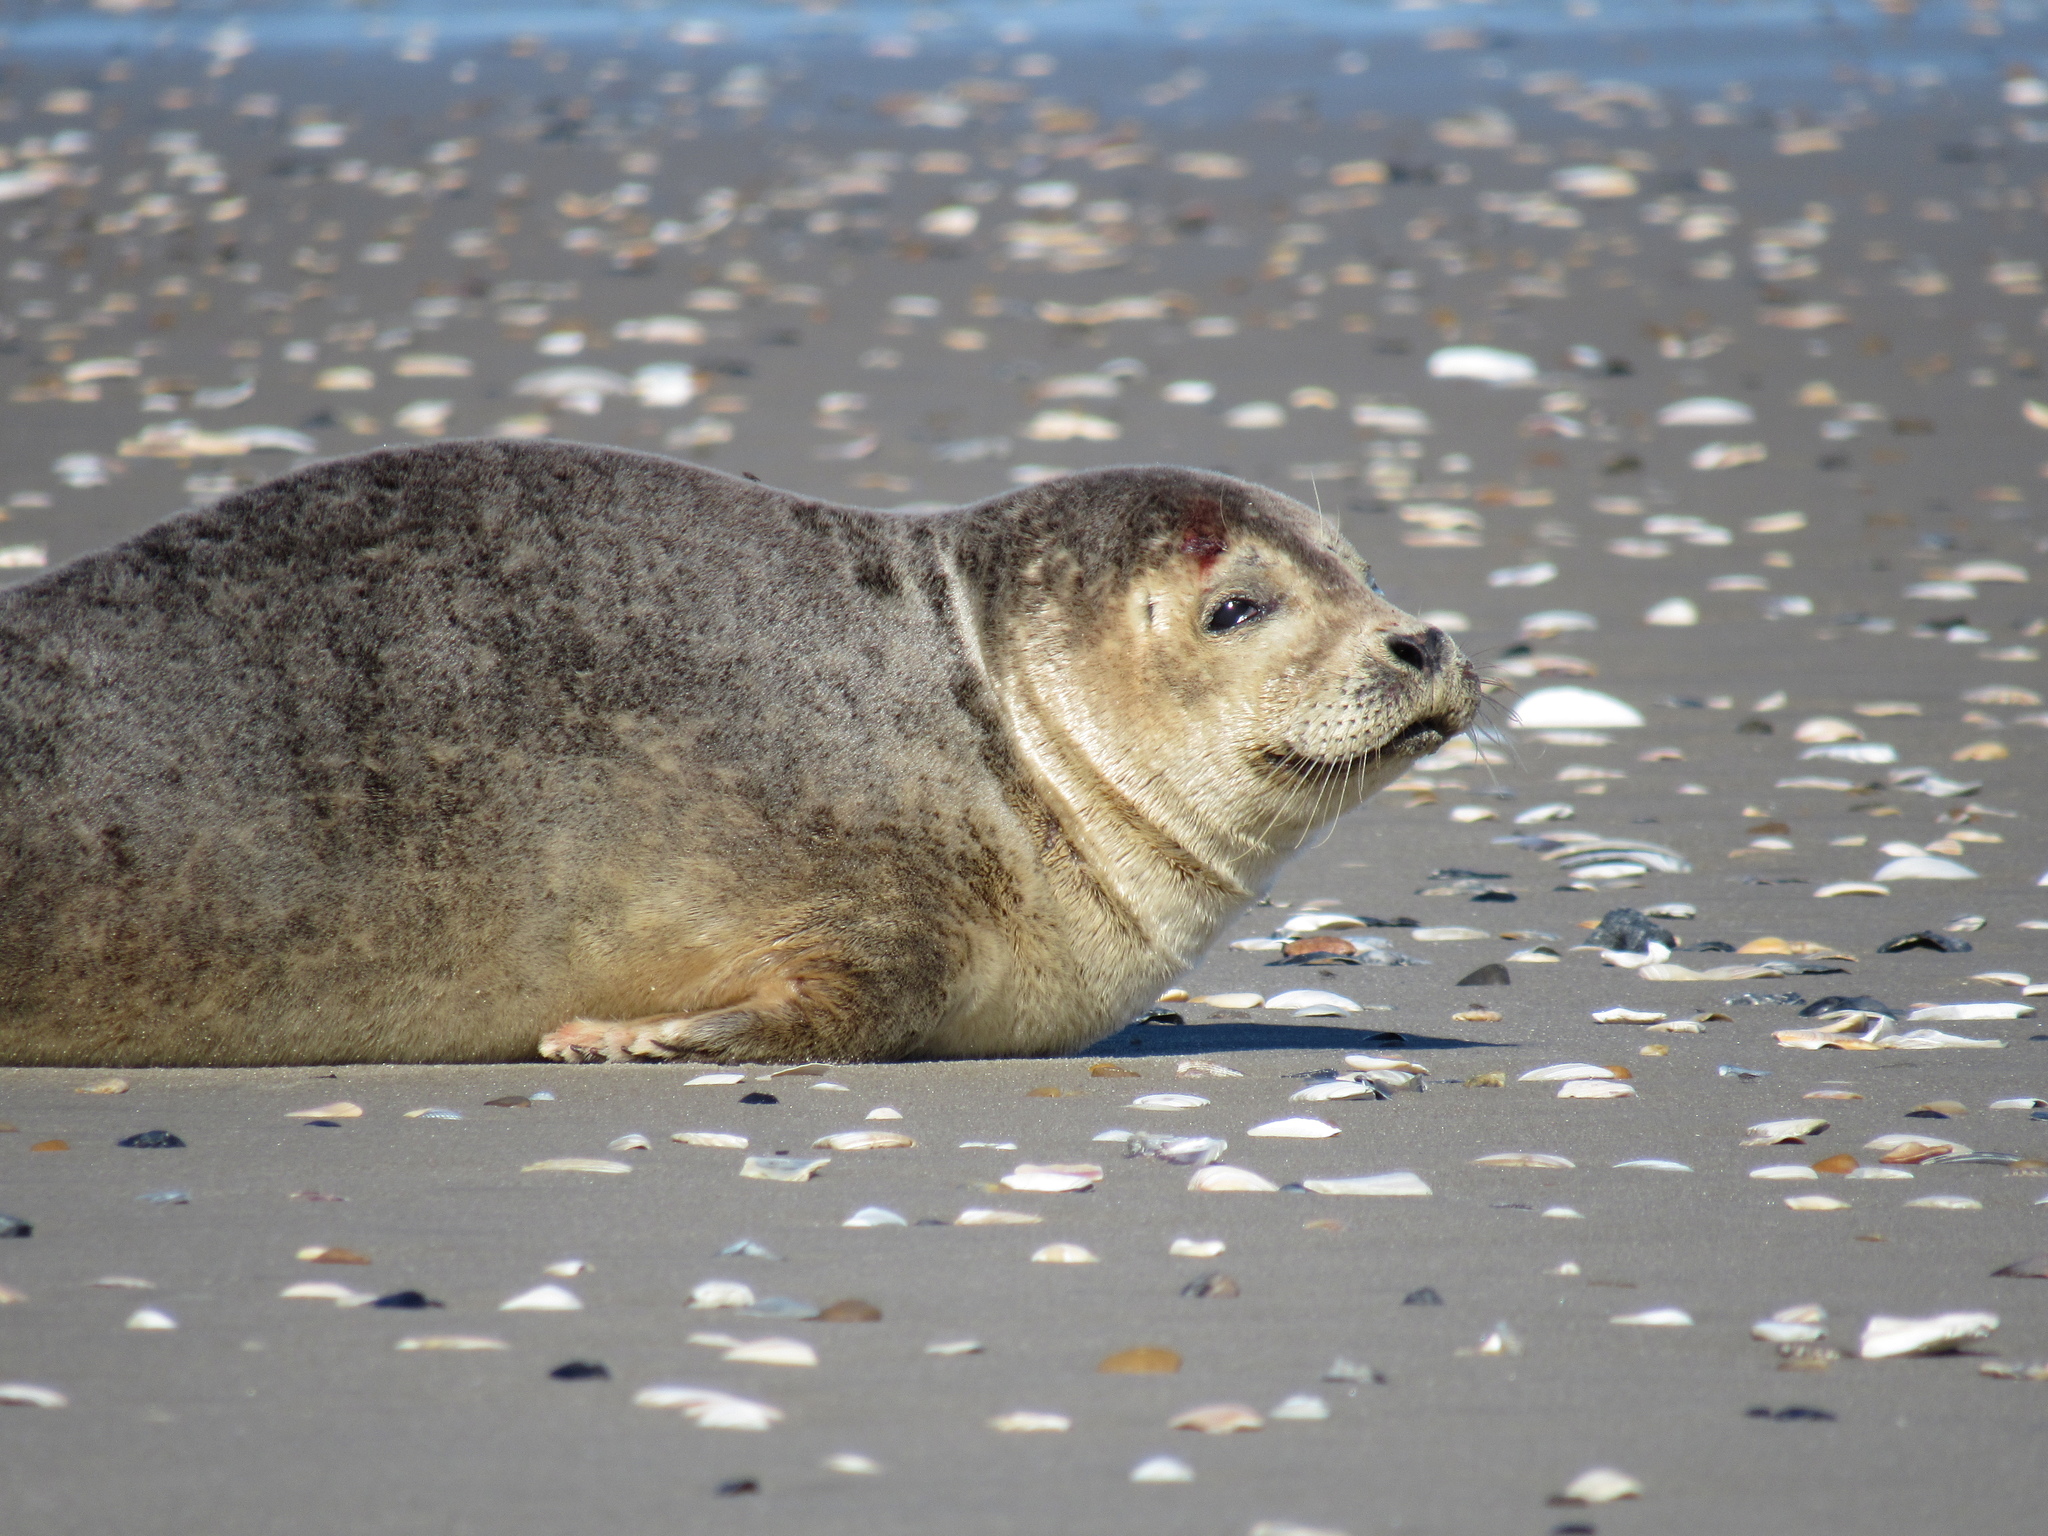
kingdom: Animalia
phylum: Chordata
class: Mammalia
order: Carnivora
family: Phocidae
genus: Phoca
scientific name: Phoca vitulina
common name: Harbor seal
